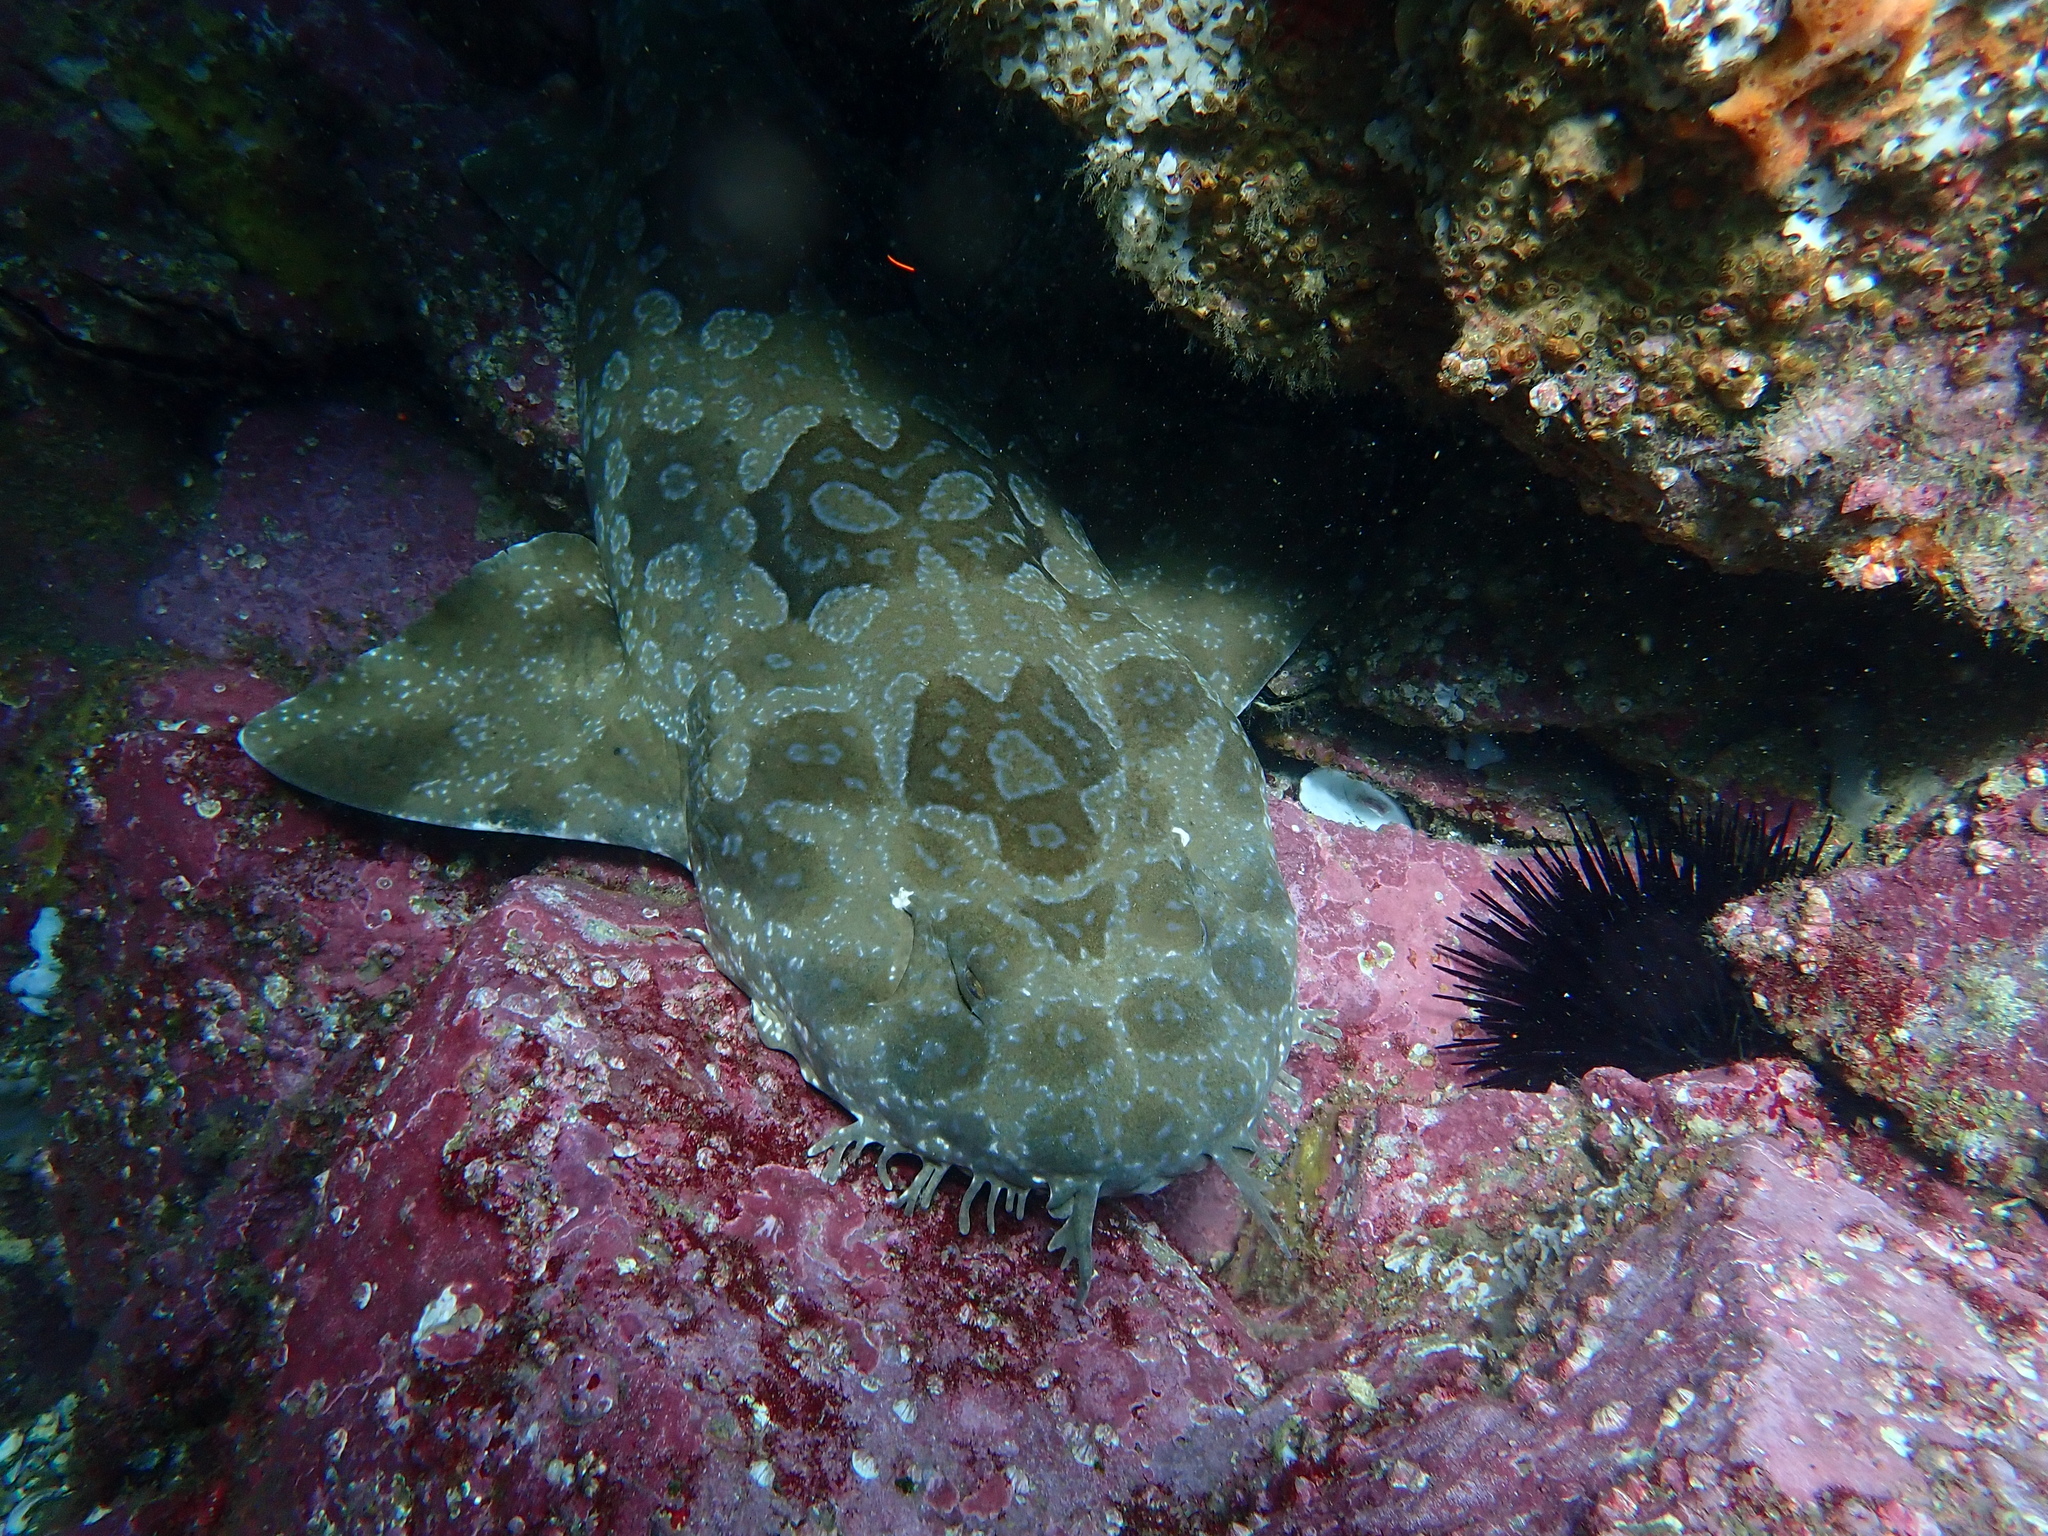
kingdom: Animalia
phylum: Chordata
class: Elasmobranchii
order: Orectolobiformes
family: Orectolobidae
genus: Orectolobus
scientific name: Orectolobus maculatus
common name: Spotted wobbegong
